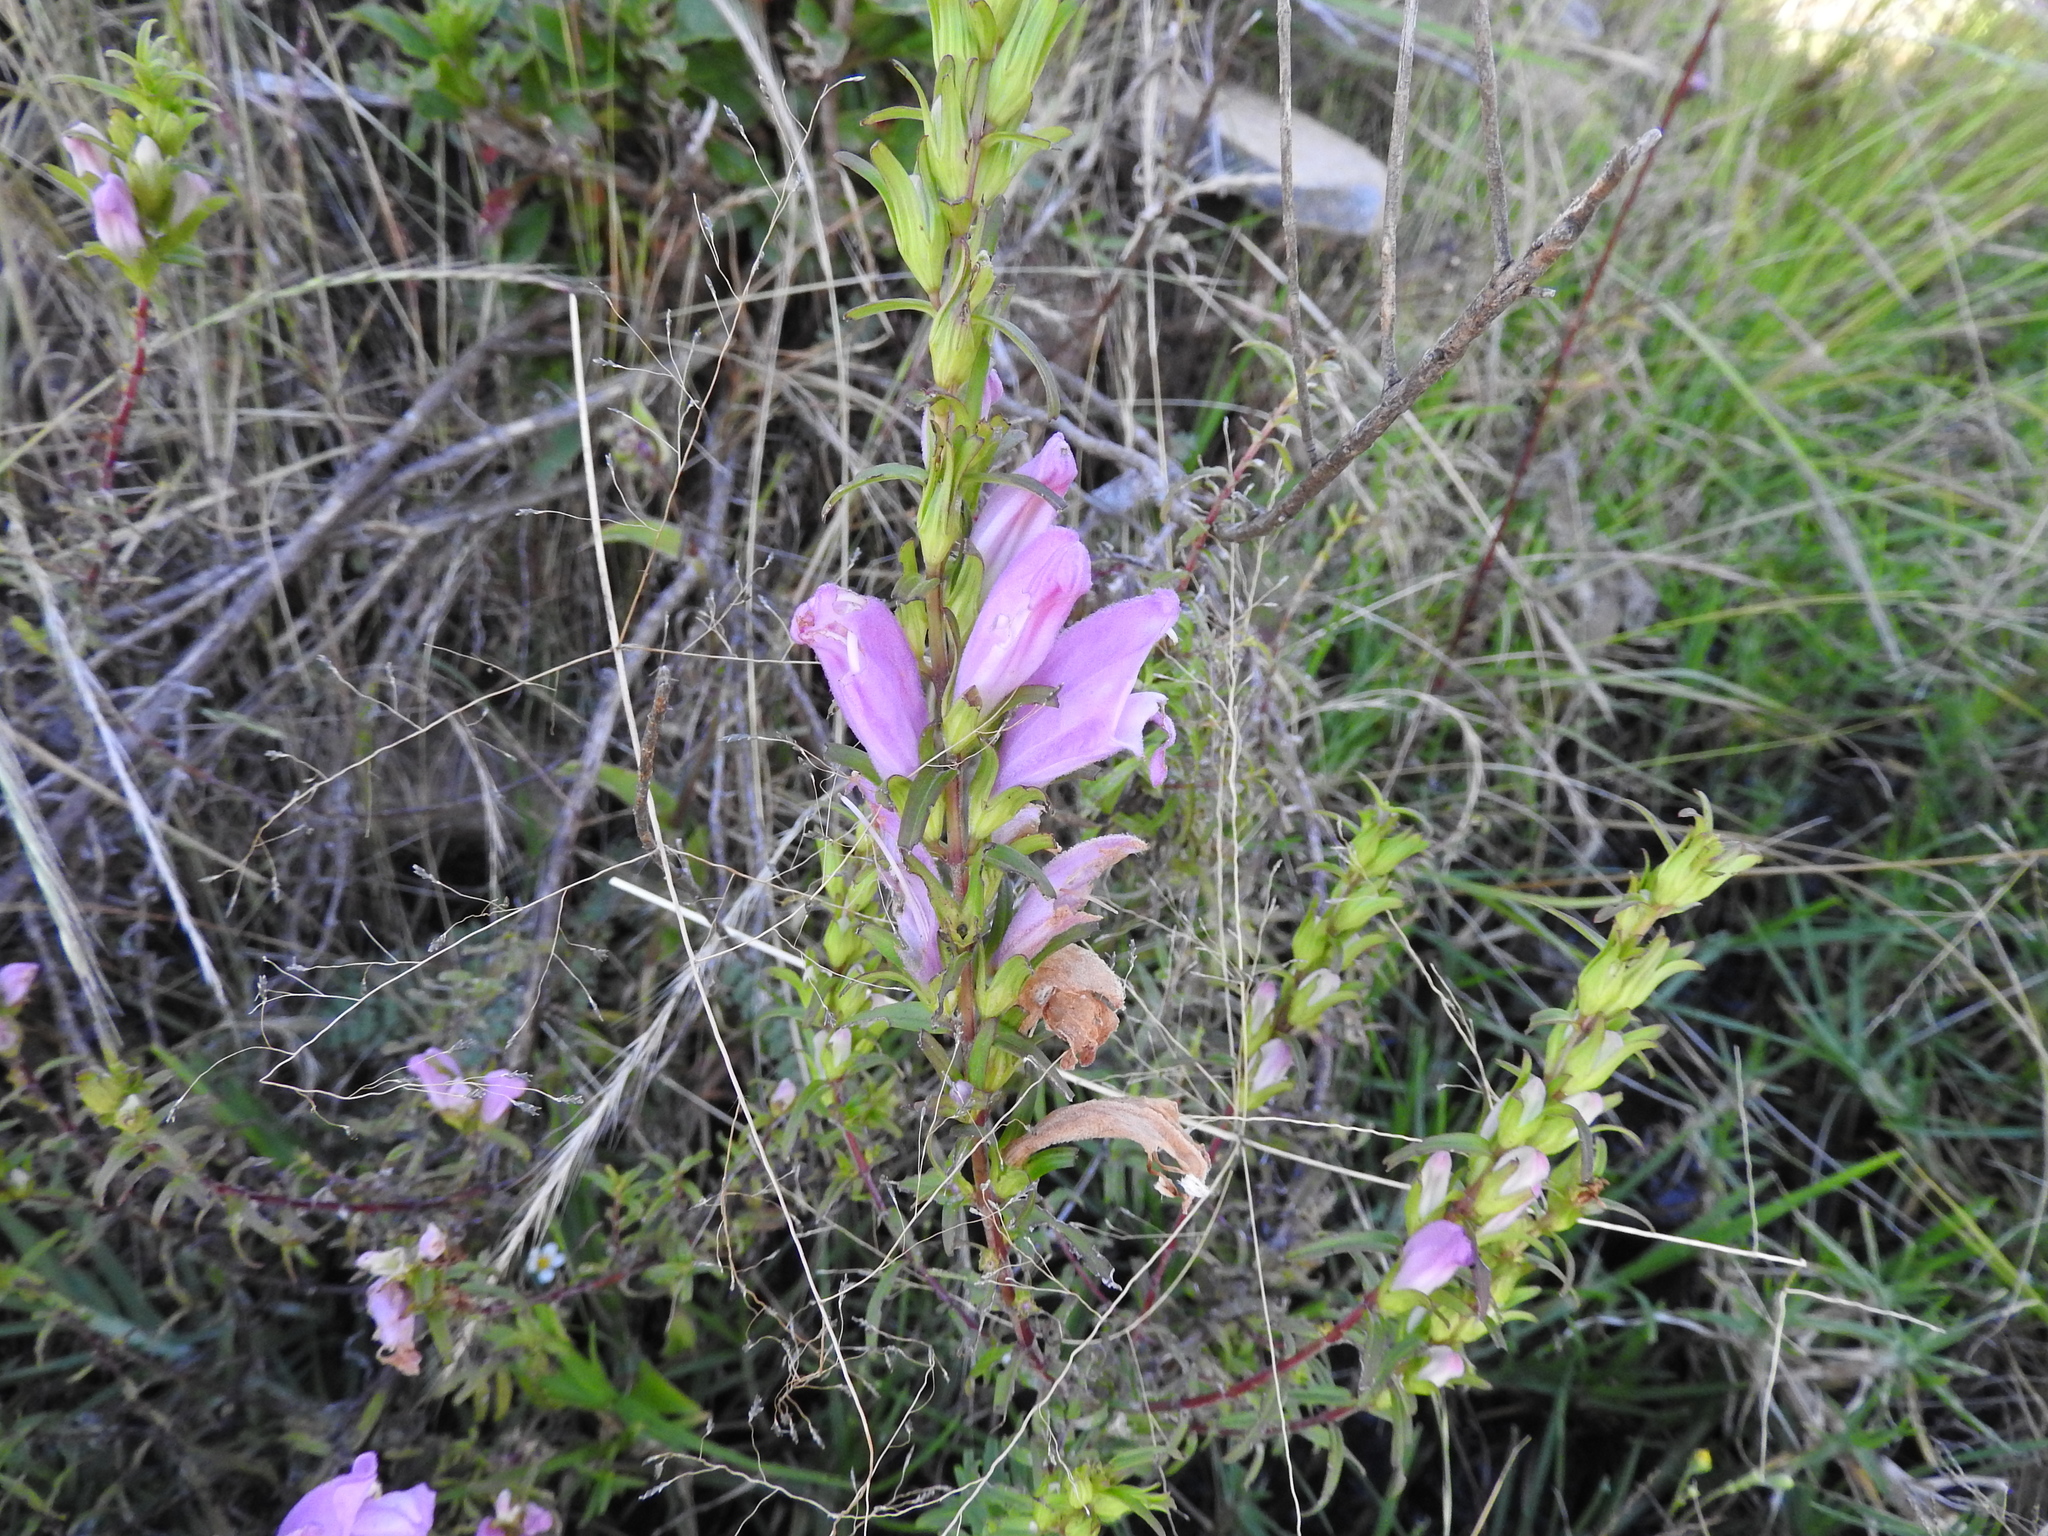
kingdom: Plantae
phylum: Tracheophyta
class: Magnoliopsida
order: Lamiales
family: Orobanchaceae
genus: Lamourouxia
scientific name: Lamourouxia dasyantha
